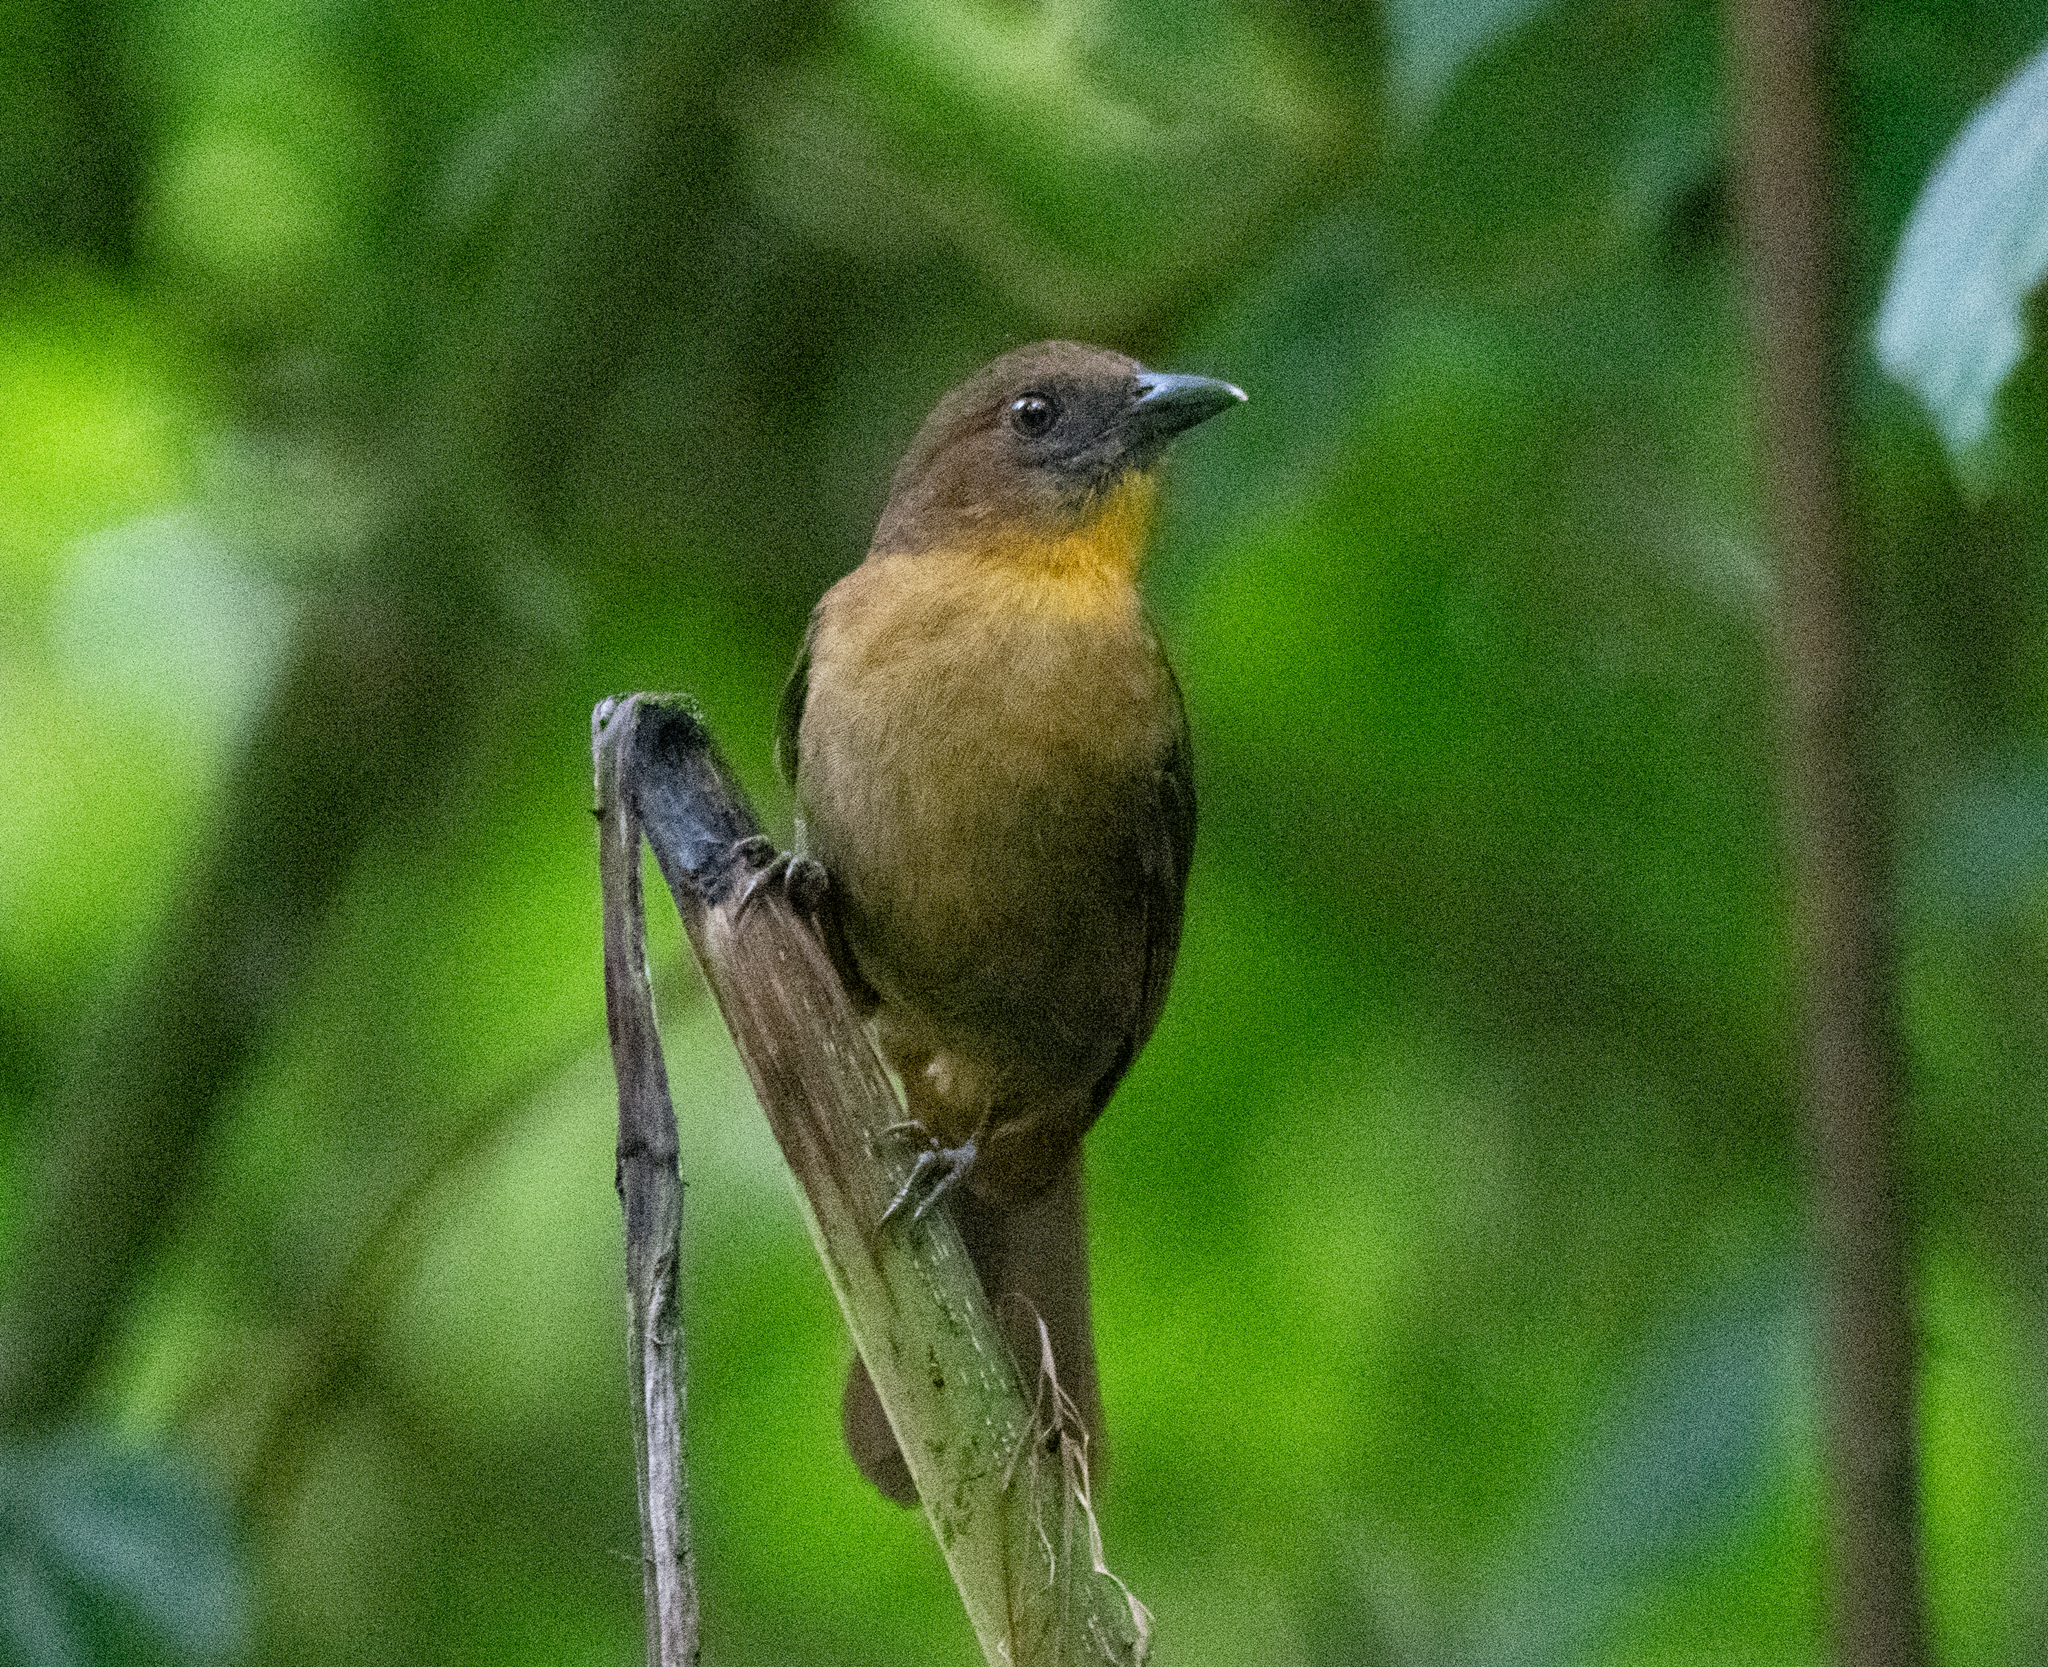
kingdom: Animalia
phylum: Chordata
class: Aves
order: Passeriformes
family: Cardinalidae
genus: Habia
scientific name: Habia fuscicauda
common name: Red-throated ant-tanager
